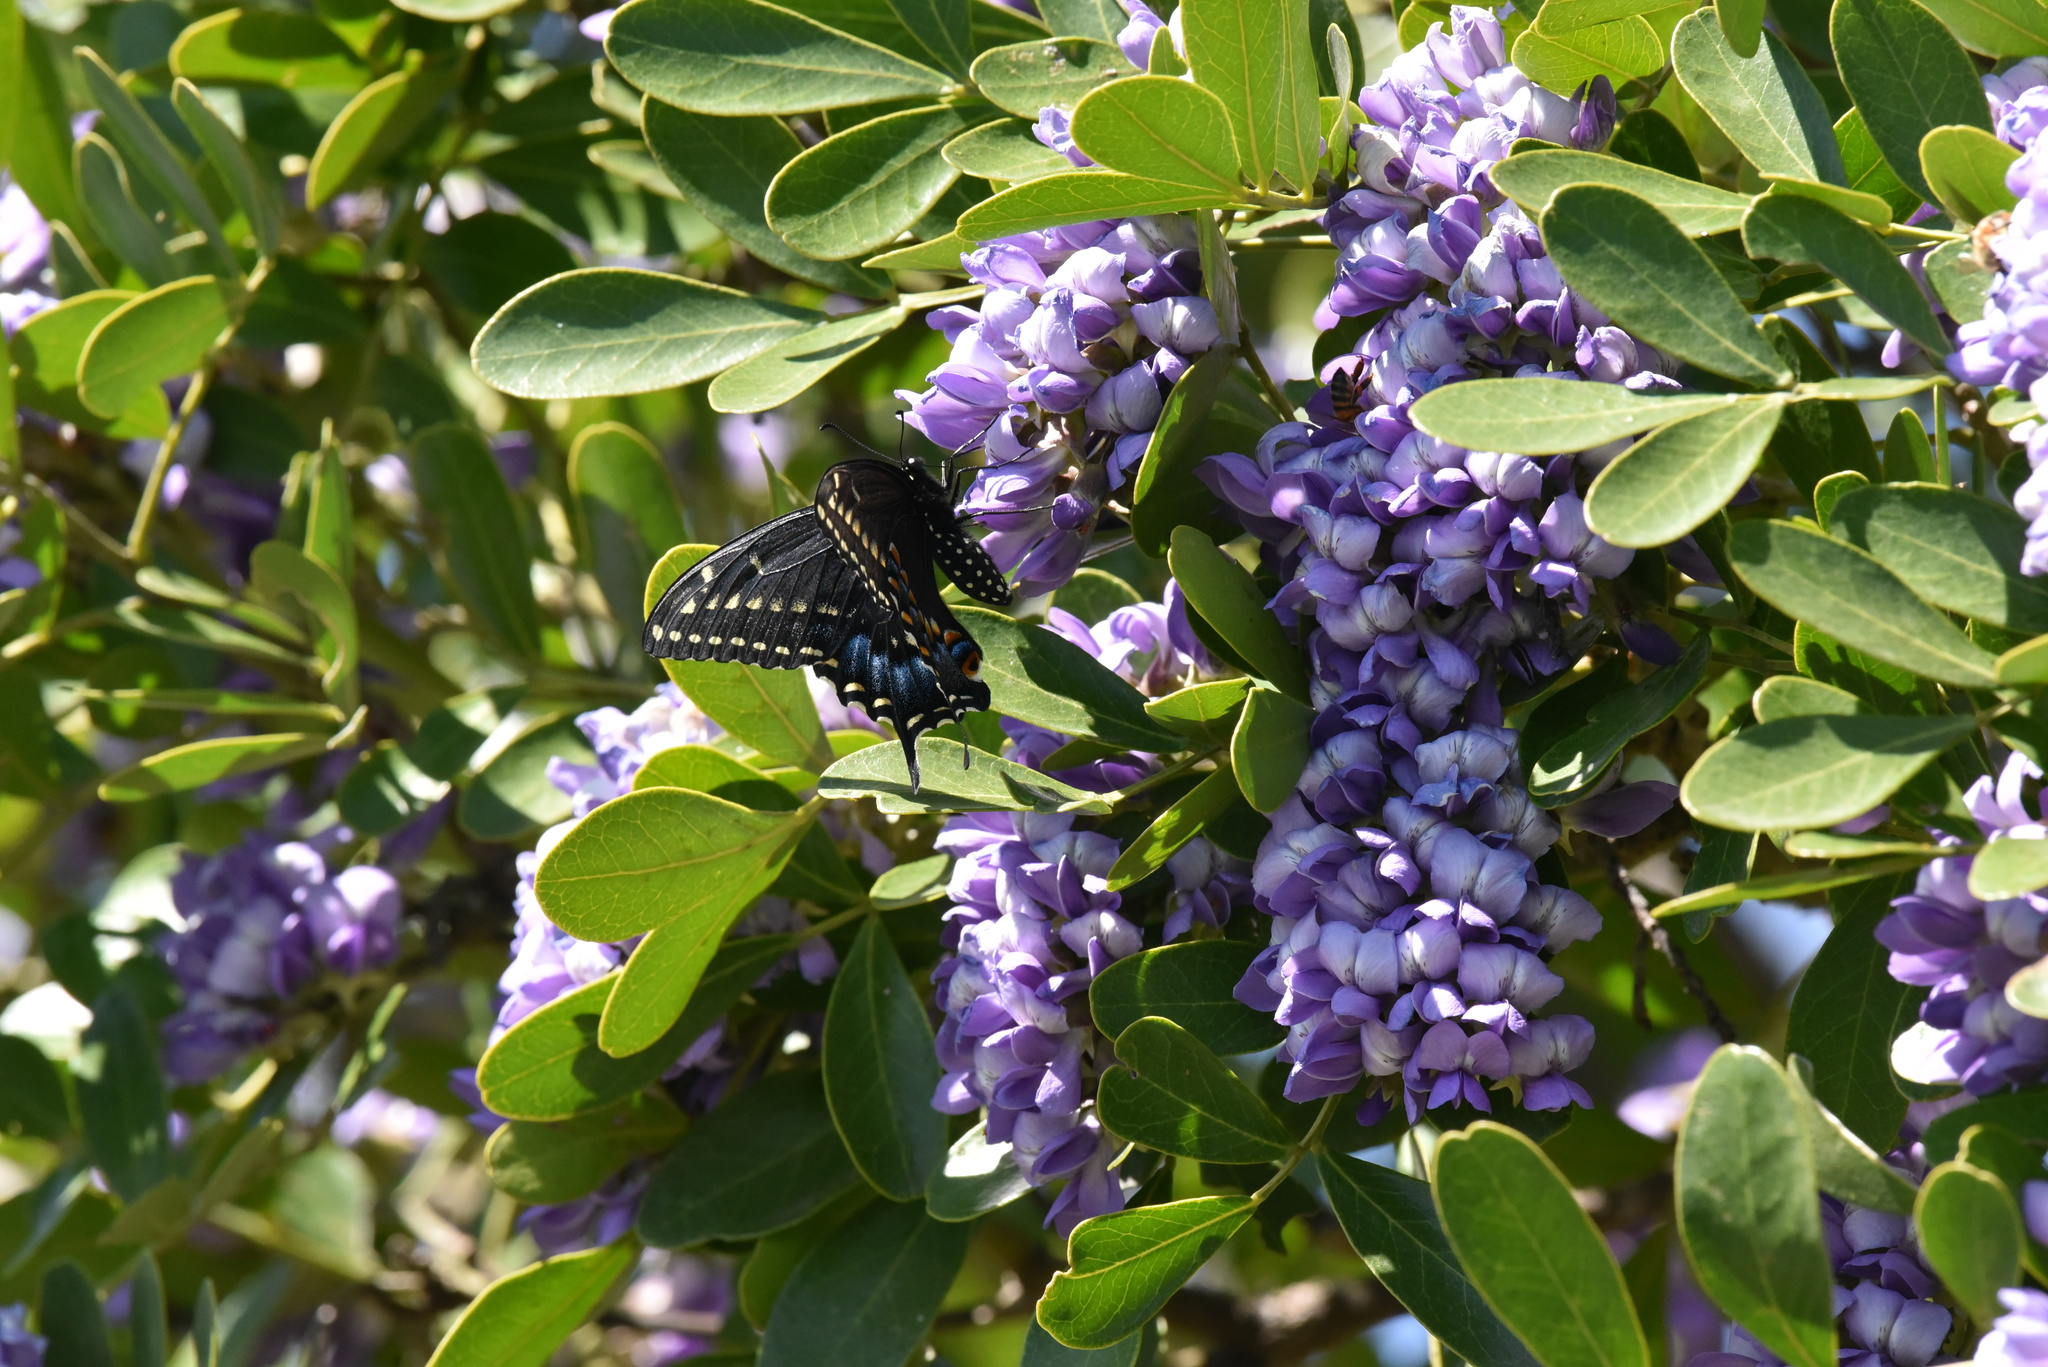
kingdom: Animalia
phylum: Arthropoda
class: Insecta
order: Lepidoptera
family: Papilionidae
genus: Papilio
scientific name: Papilio polyxenes
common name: Black swallowtail
